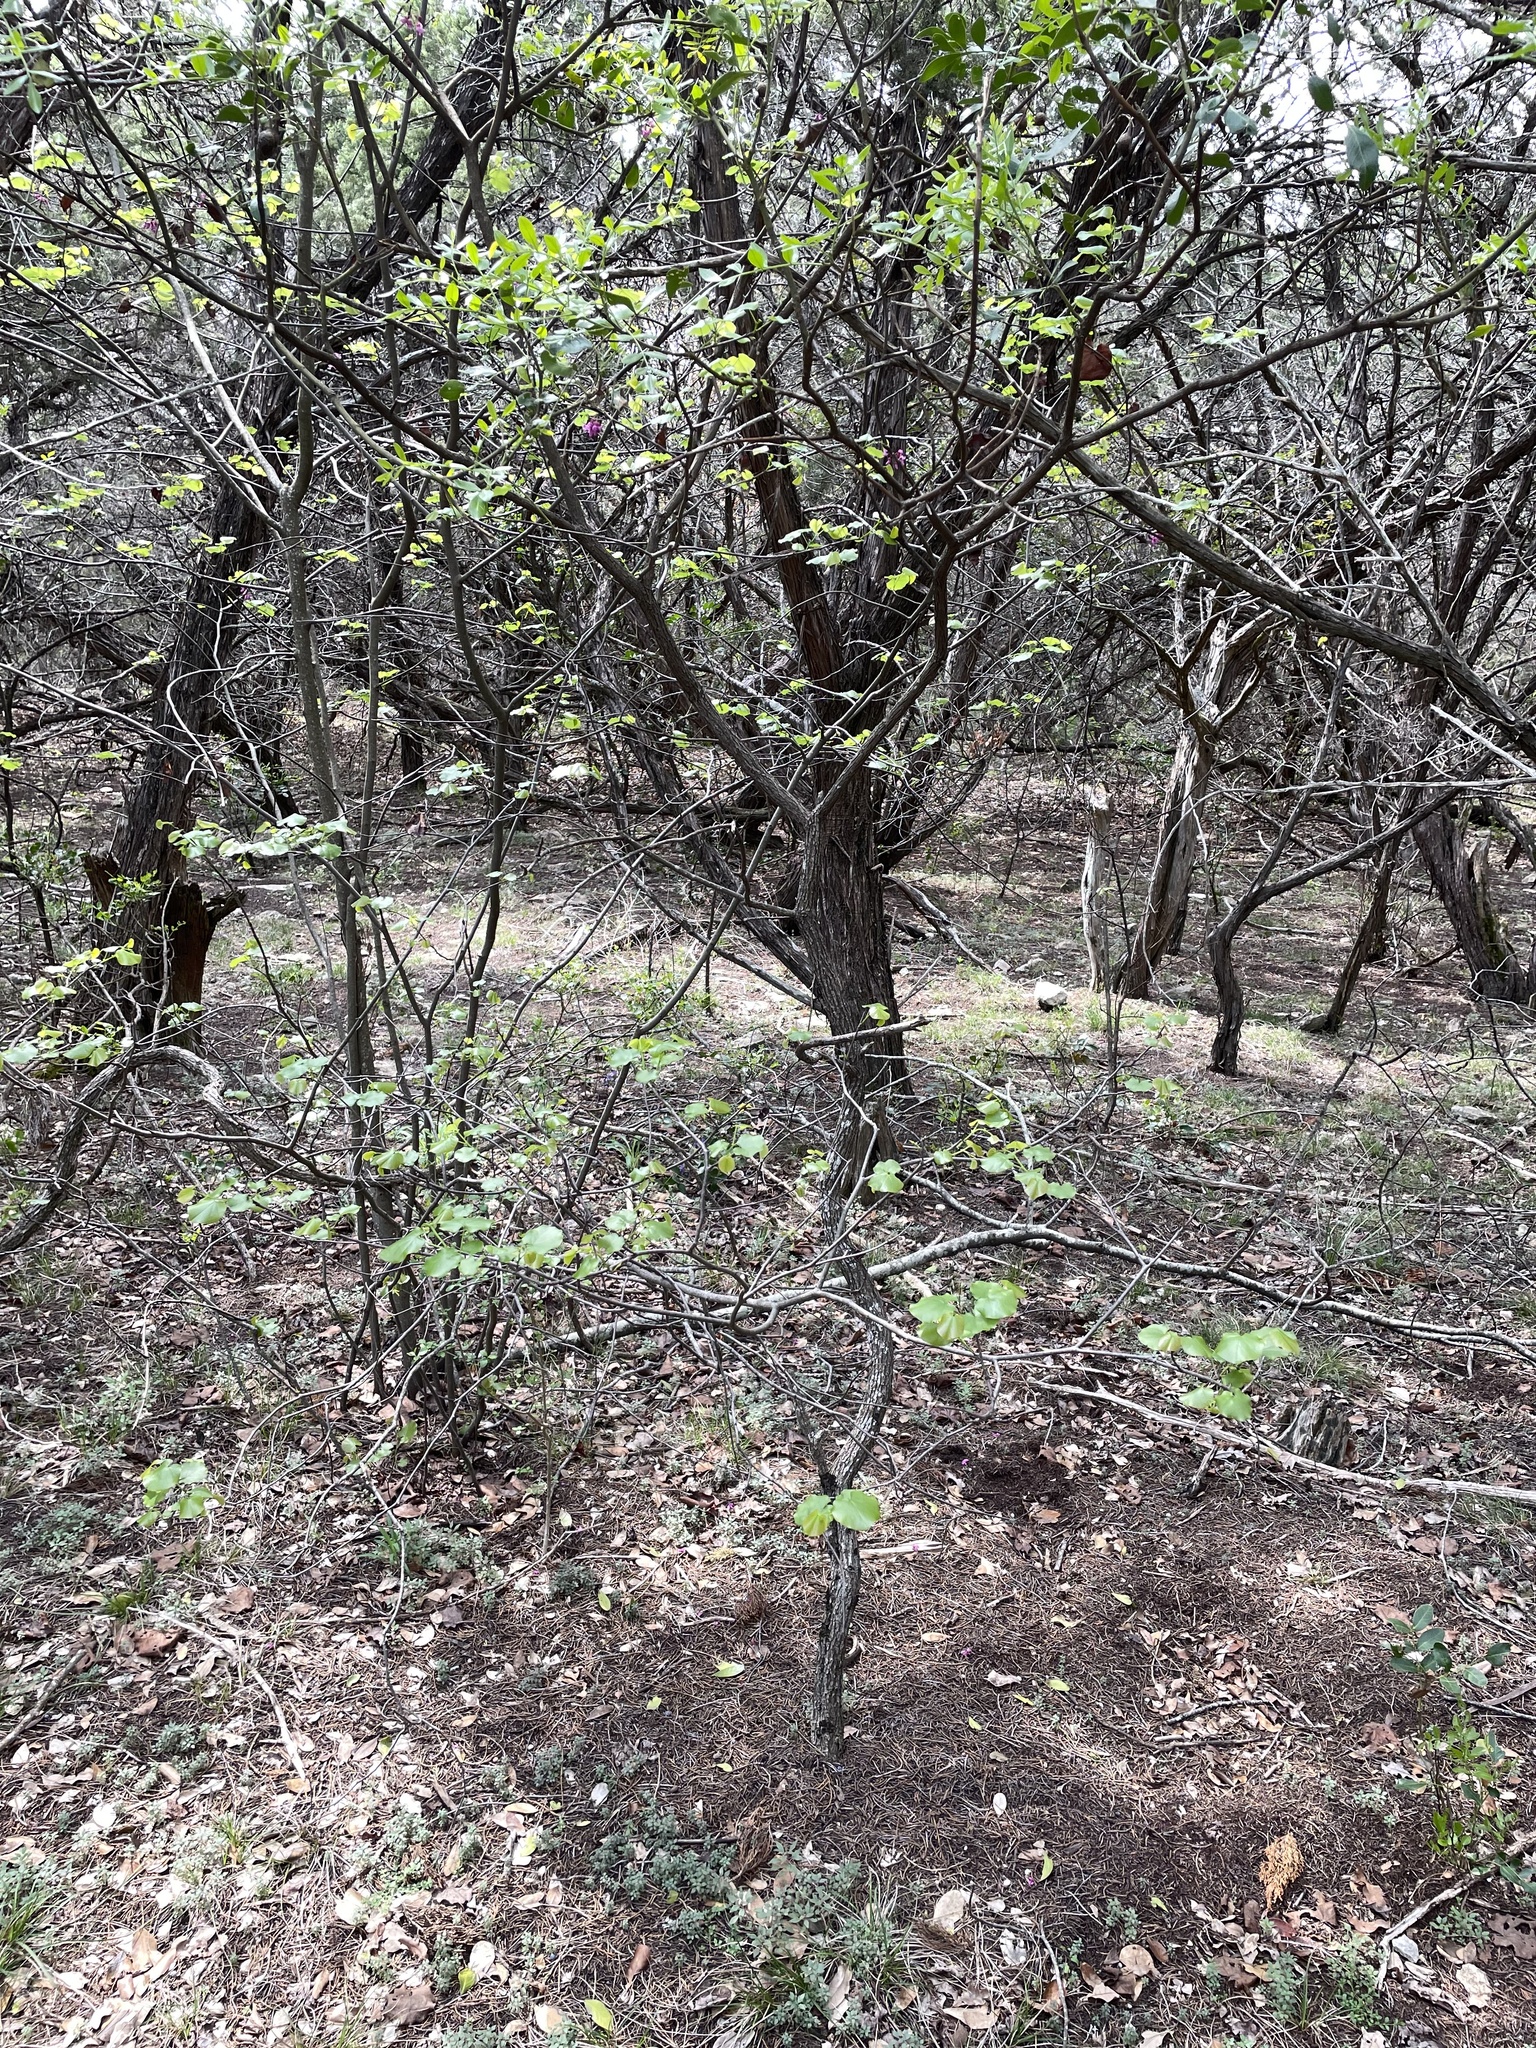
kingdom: Plantae
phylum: Tracheophyta
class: Magnoliopsida
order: Fabales
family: Fabaceae
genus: Cercis
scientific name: Cercis canadensis
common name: Eastern redbud
